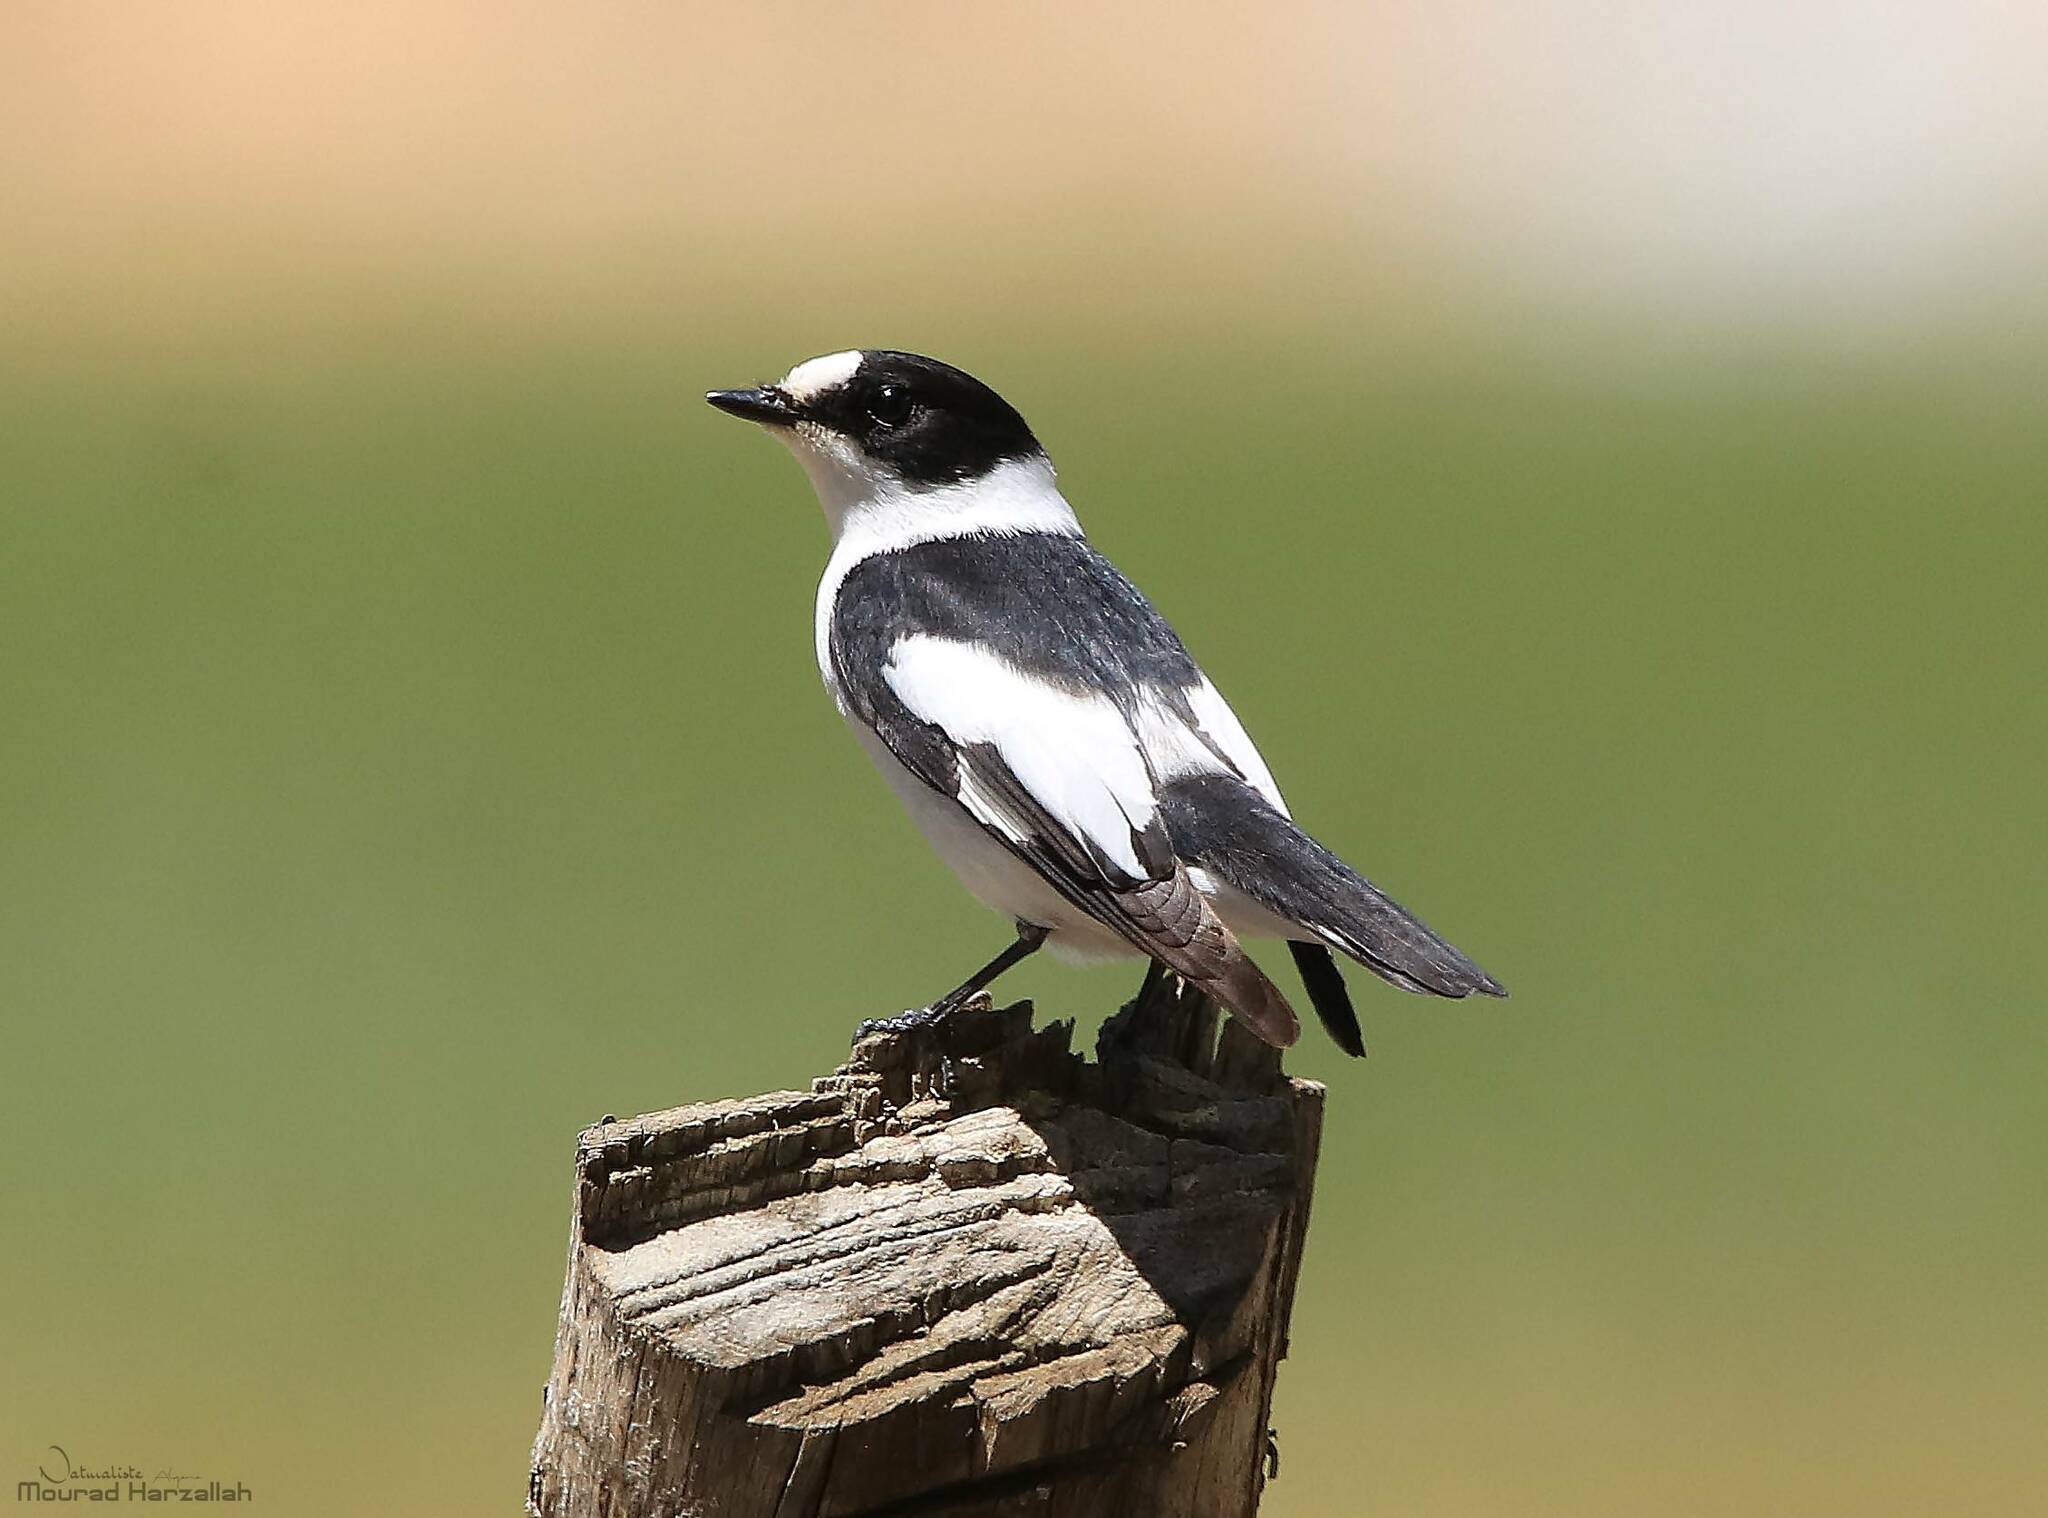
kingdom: Animalia
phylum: Chordata
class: Aves
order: Passeriformes
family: Muscicapidae
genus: Ficedula
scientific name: Ficedula albicollis
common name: Collared flycatcher
